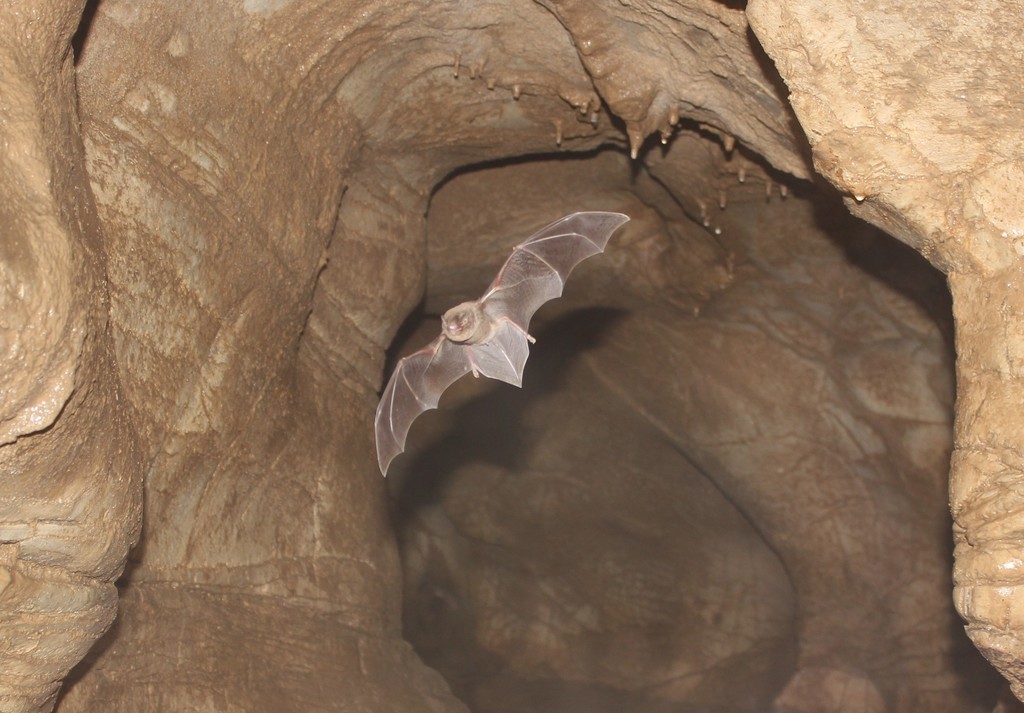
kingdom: Animalia
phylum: Chordata
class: Mammalia
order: Chiroptera
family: Miniopteridae
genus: Miniopterus
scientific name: Miniopterus schreibersii
